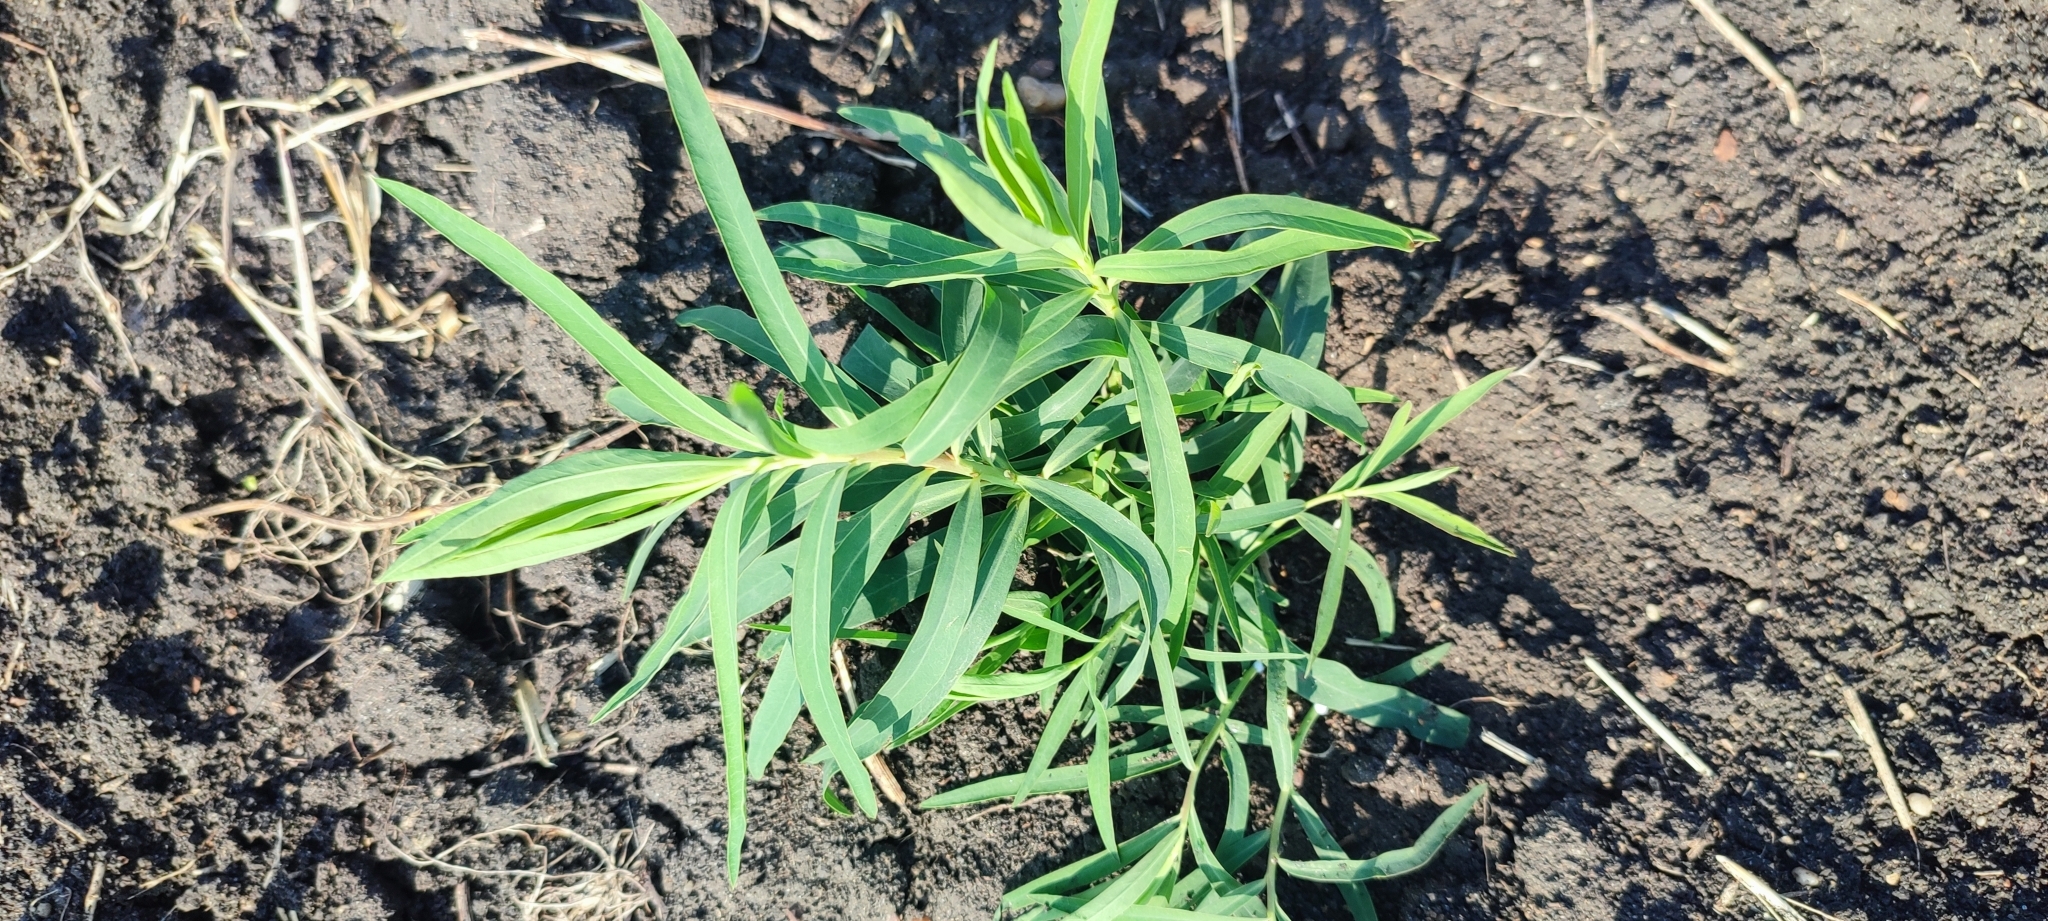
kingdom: Plantae
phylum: Tracheophyta
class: Magnoliopsida
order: Malpighiales
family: Euphorbiaceae
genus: Euphorbia
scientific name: Euphorbia virgata
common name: Leafy spurge
